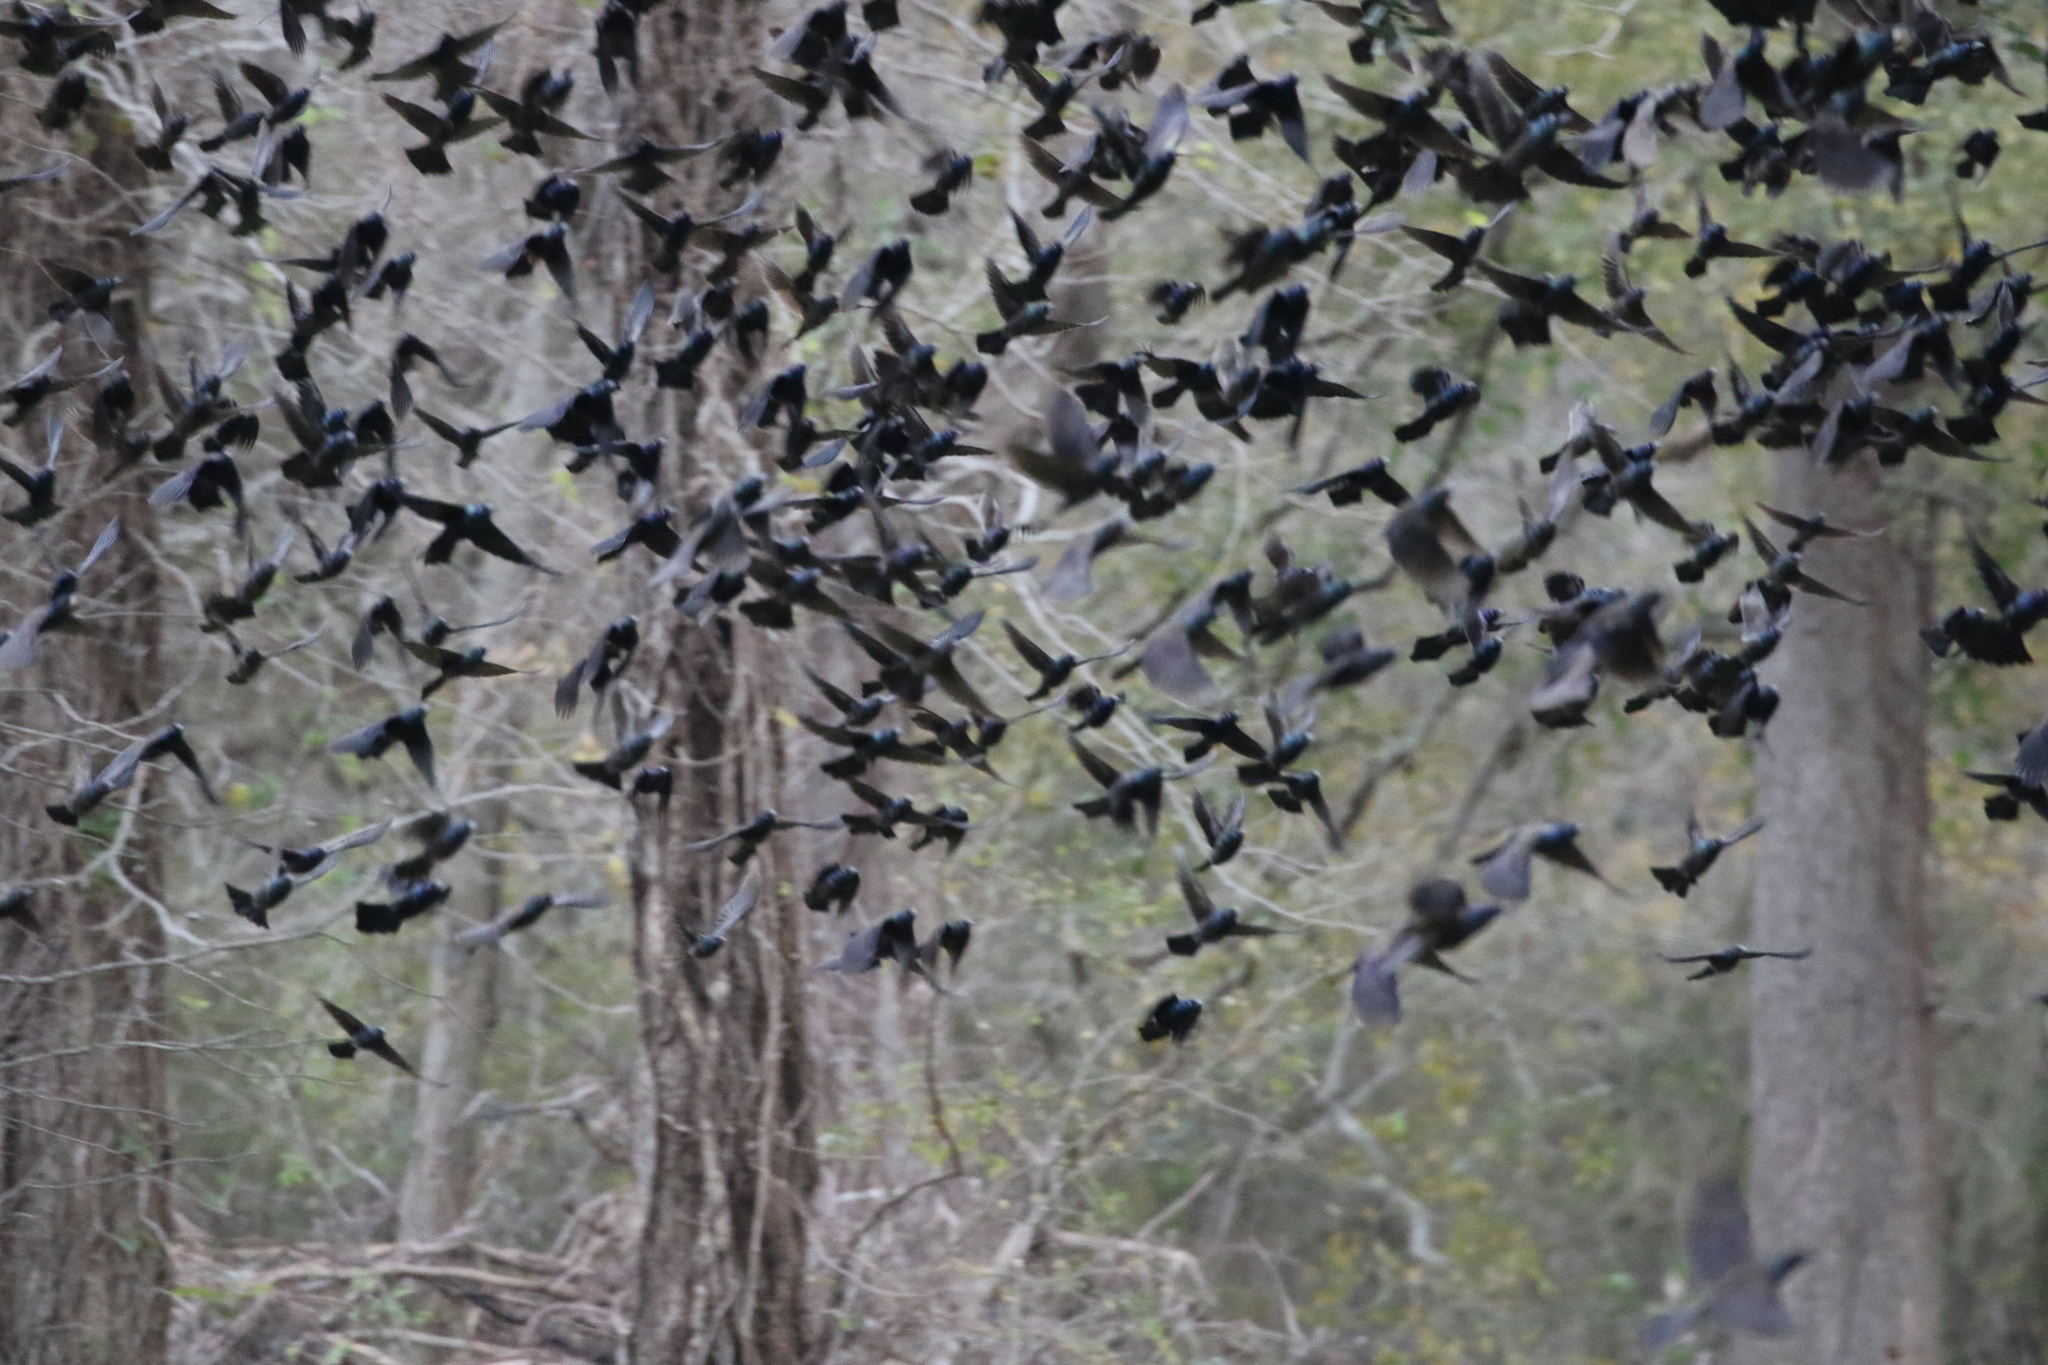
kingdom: Animalia
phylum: Chordata
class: Aves
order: Passeriformes
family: Icteridae
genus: Quiscalus
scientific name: Quiscalus quiscula
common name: Common grackle
